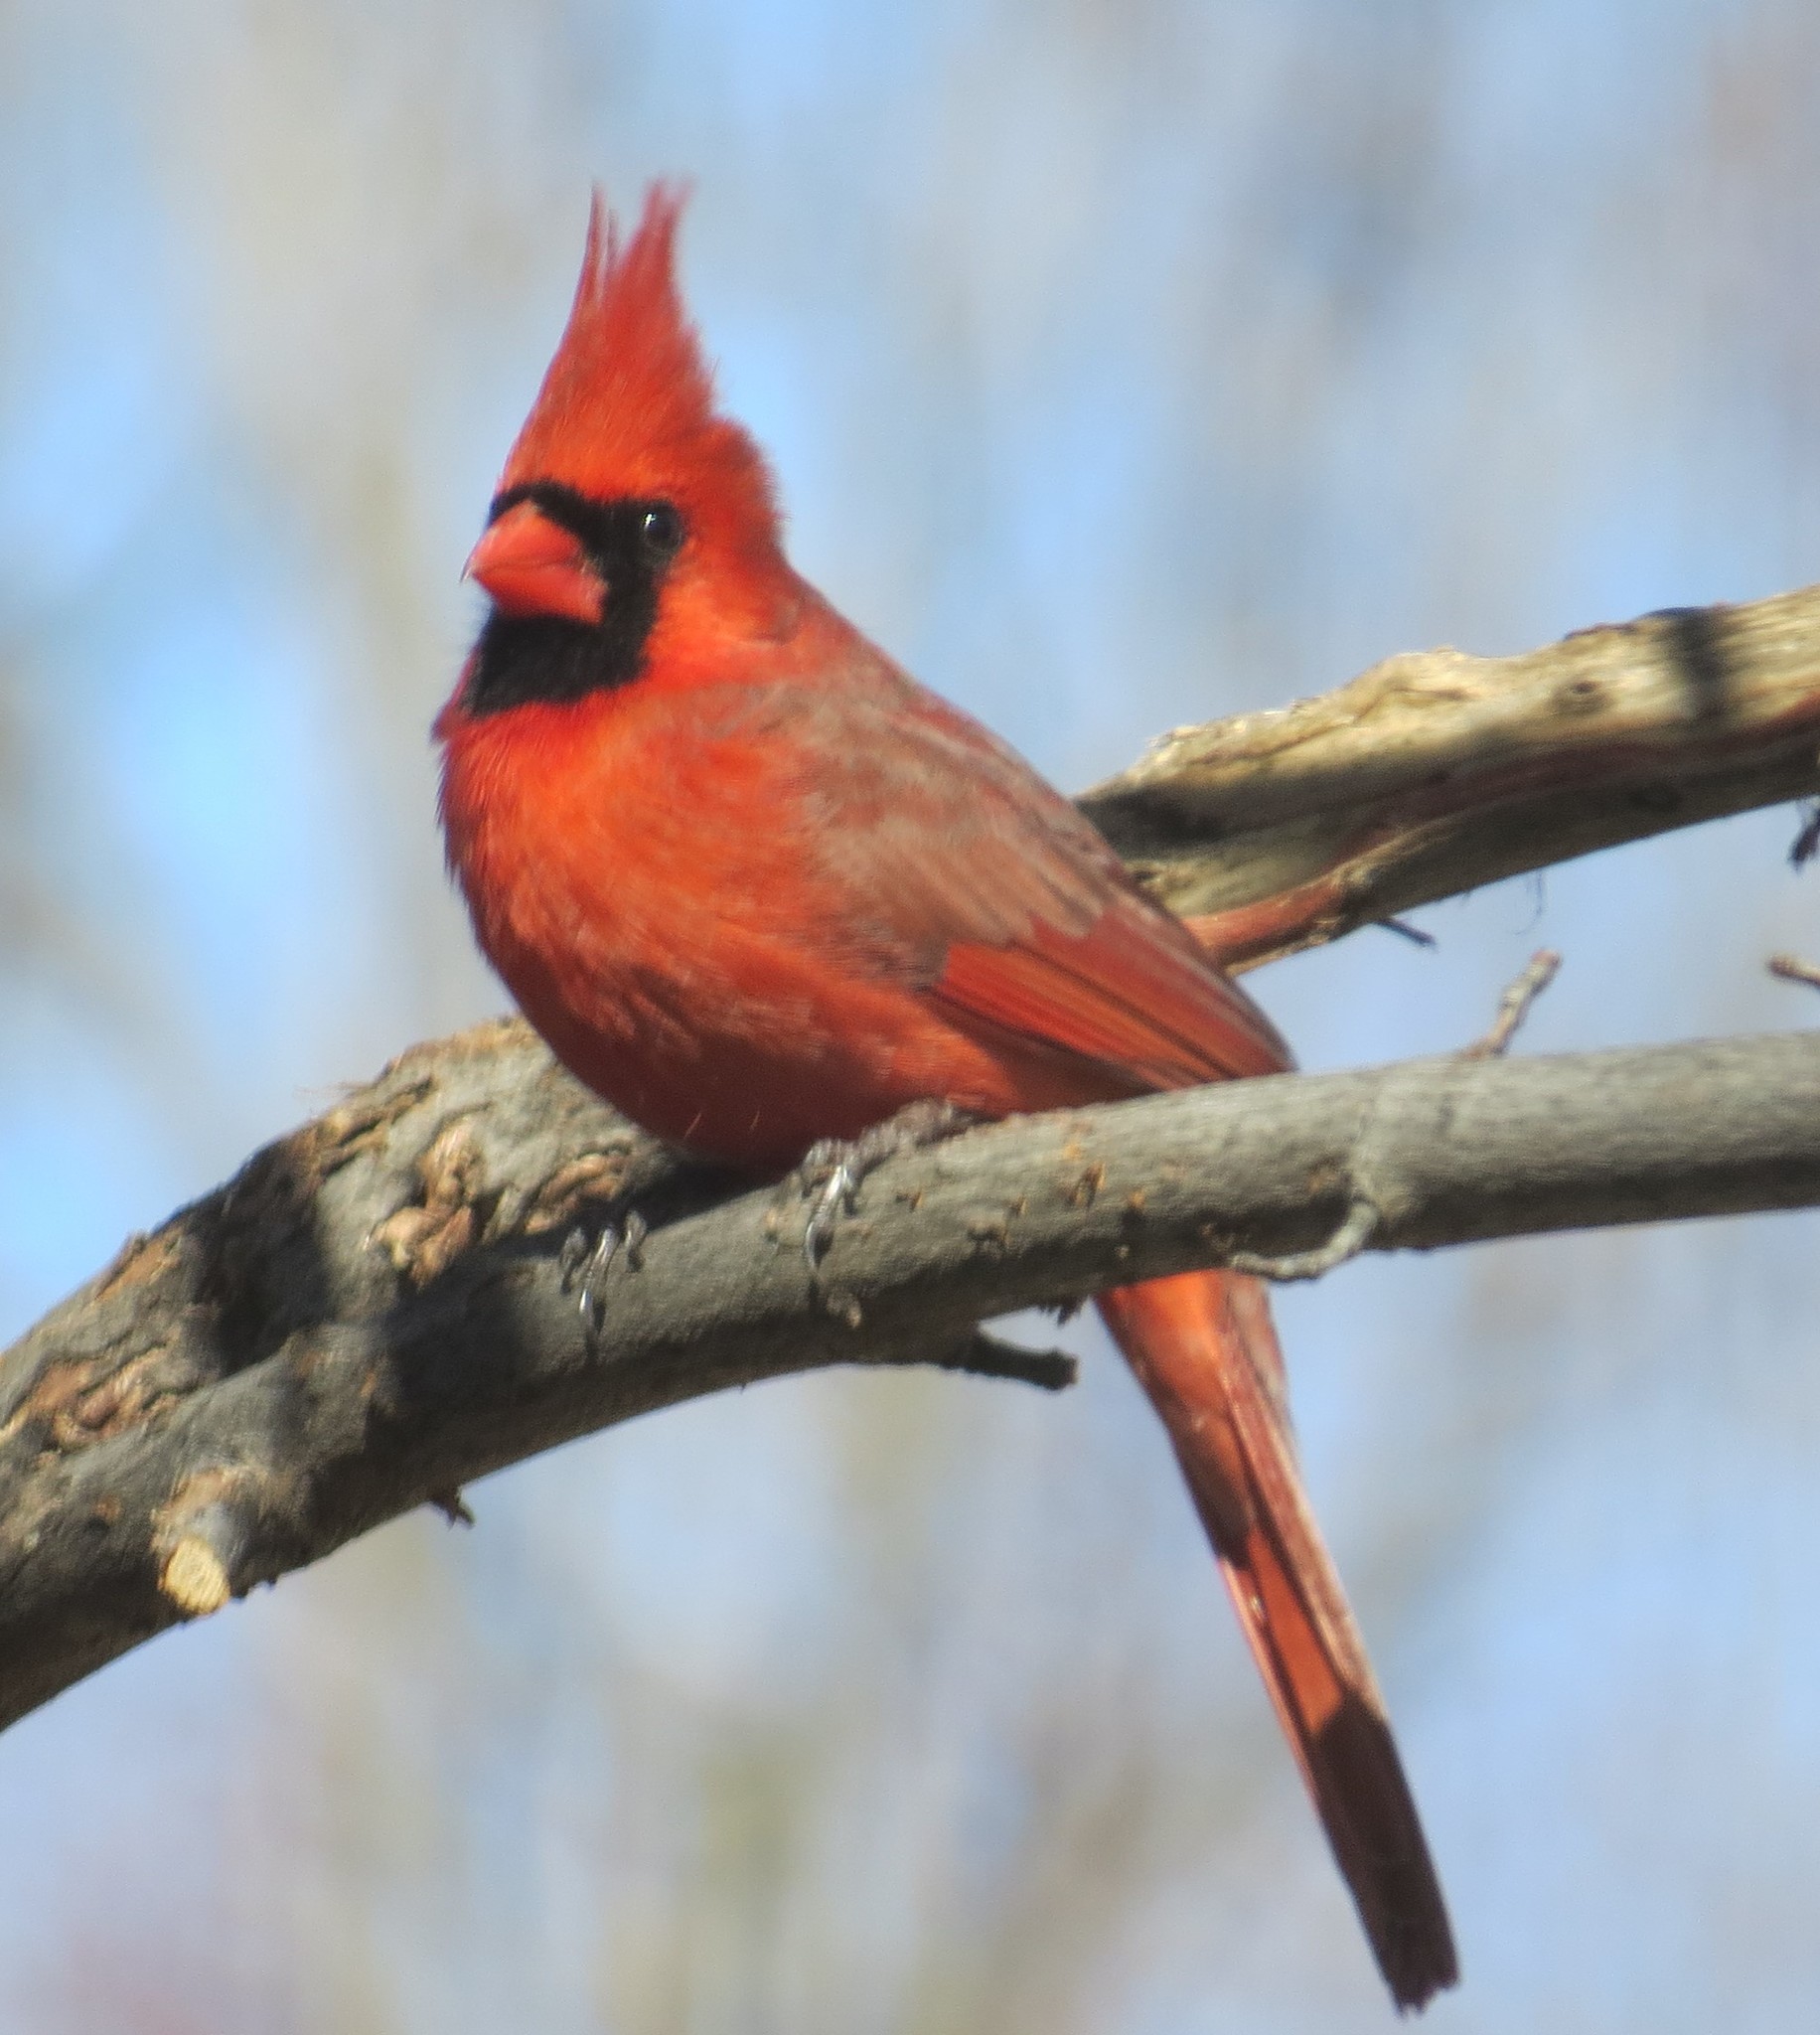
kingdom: Animalia
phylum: Chordata
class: Aves
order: Passeriformes
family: Cardinalidae
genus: Cardinalis
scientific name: Cardinalis cardinalis
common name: Northern cardinal
